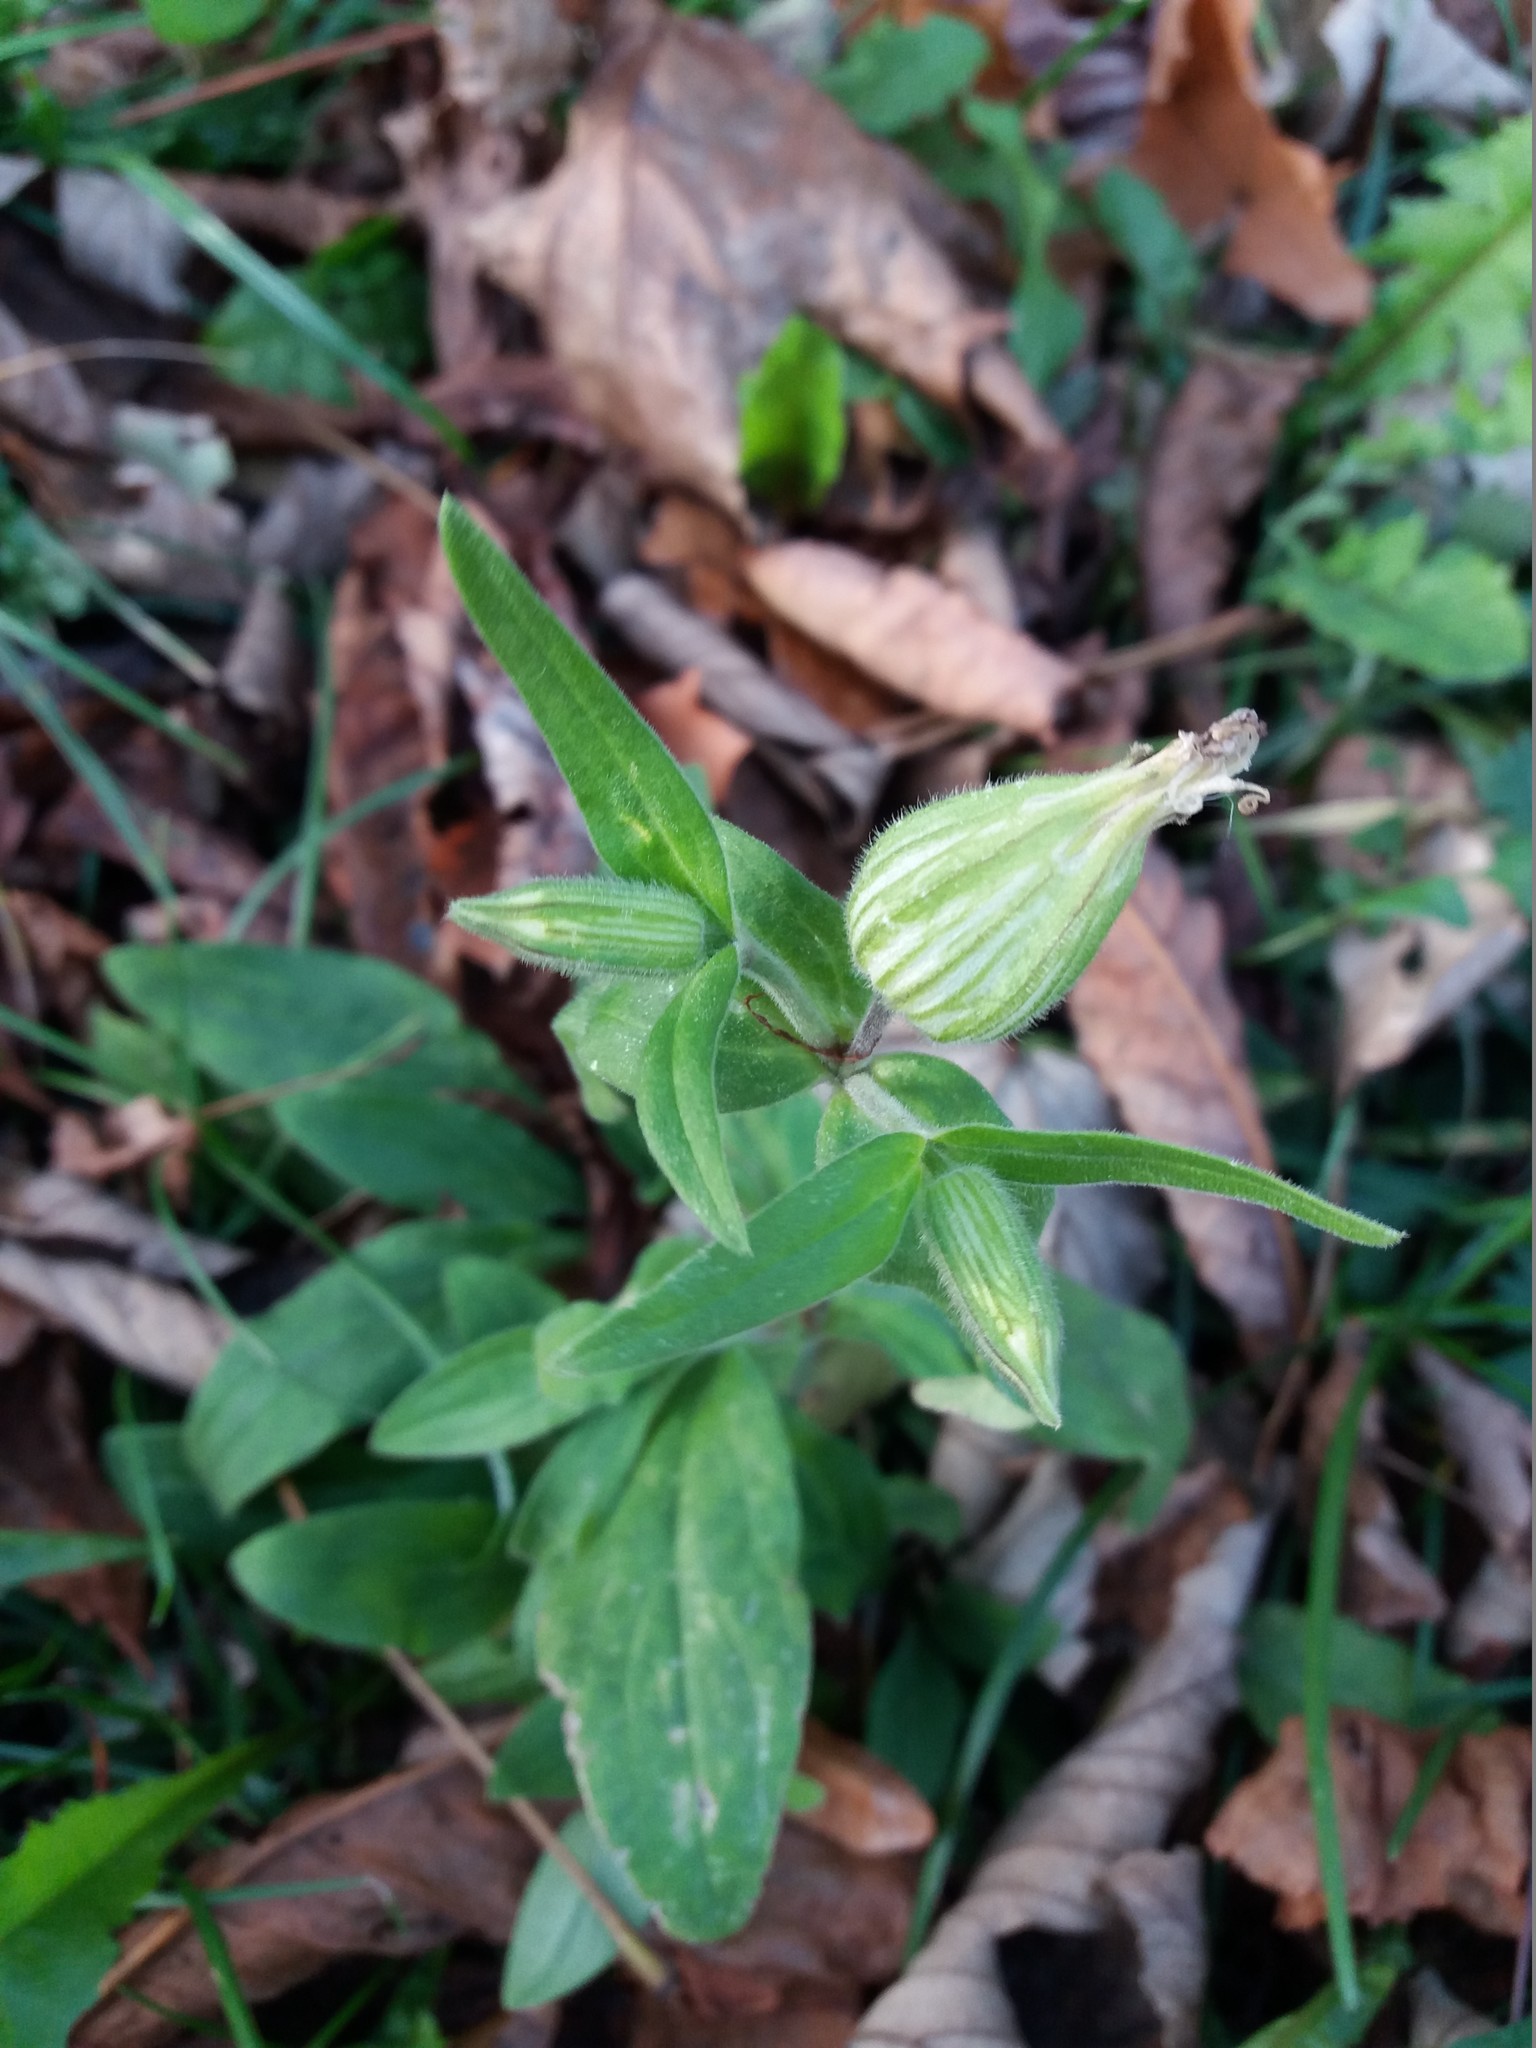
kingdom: Plantae
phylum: Tracheophyta
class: Magnoliopsida
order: Caryophyllales
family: Caryophyllaceae
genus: Silene
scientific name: Silene latifolia
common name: White campion
